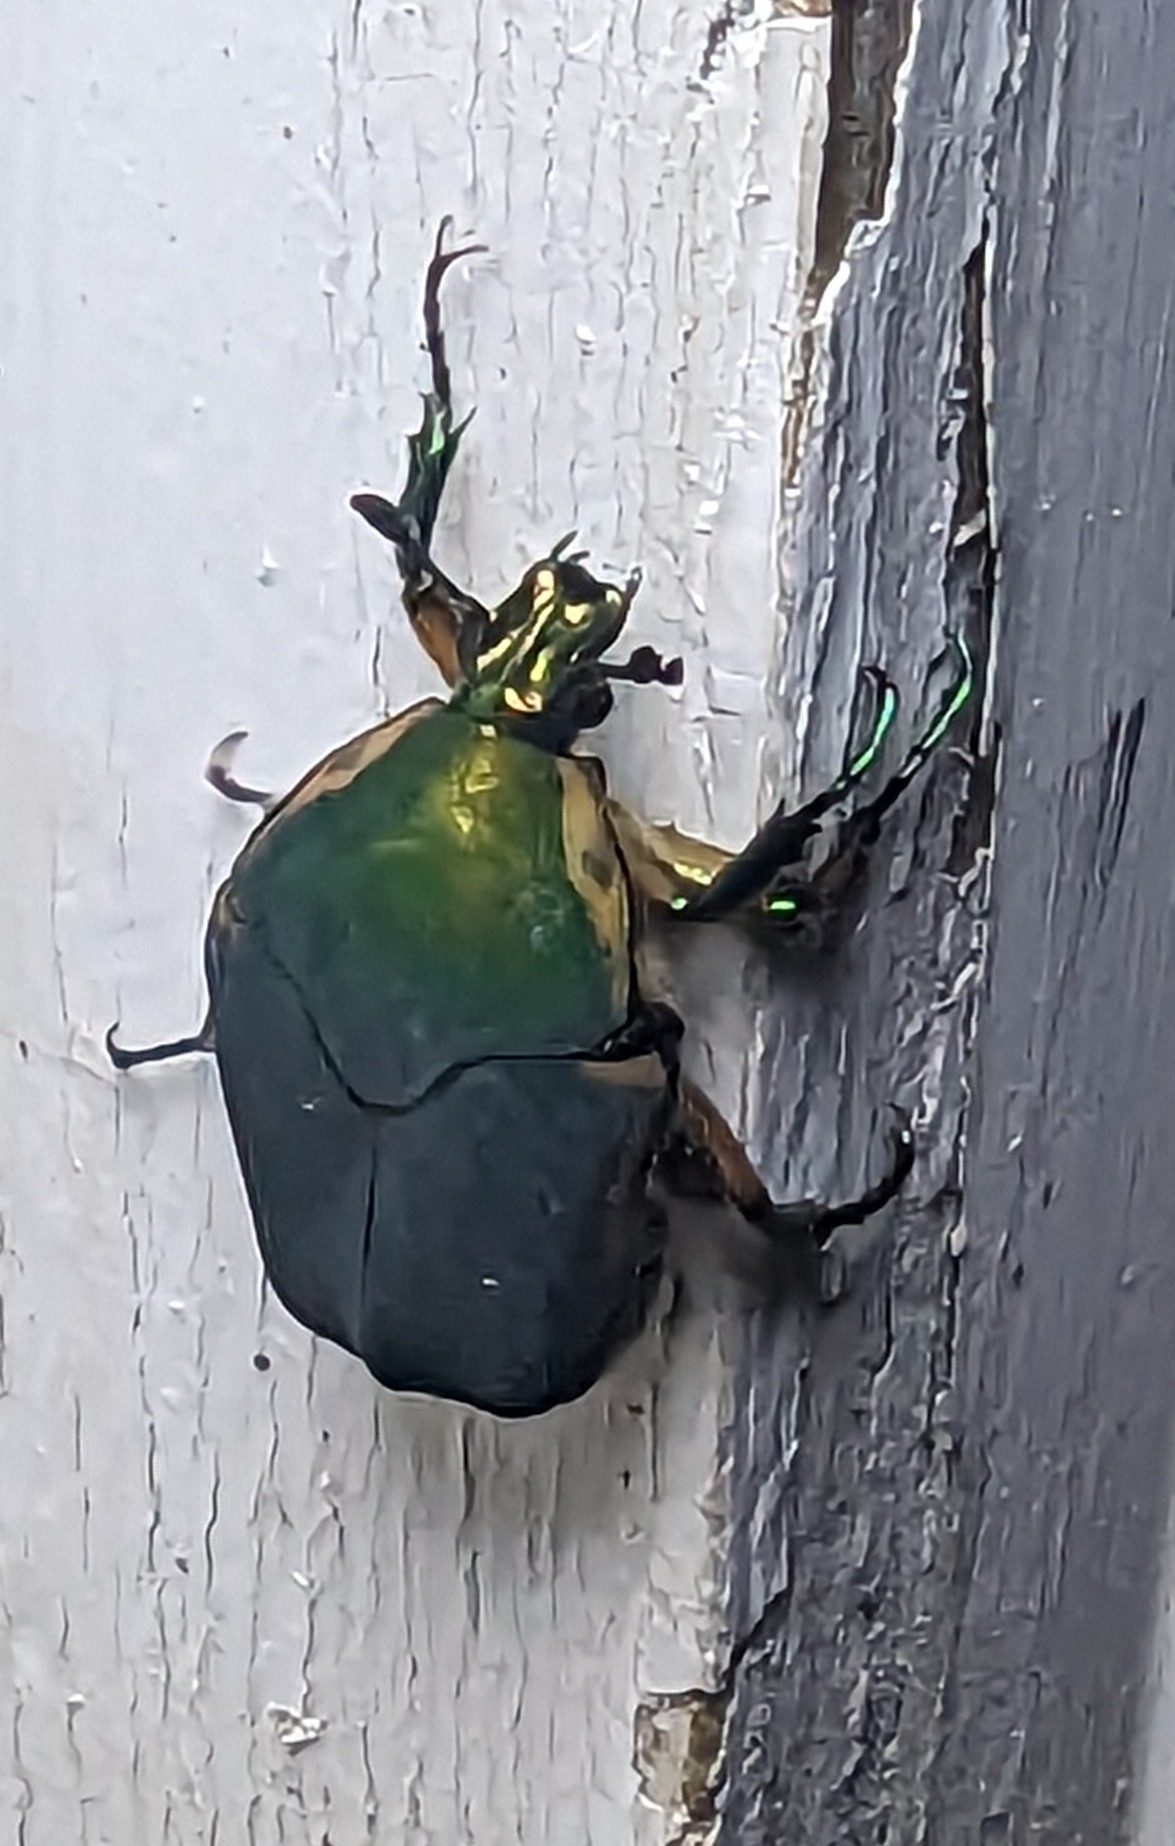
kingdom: Animalia
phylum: Arthropoda
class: Insecta
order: Coleoptera
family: Scarabaeidae
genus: Cotinis
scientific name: Cotinis nitida
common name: Common green june beetle
